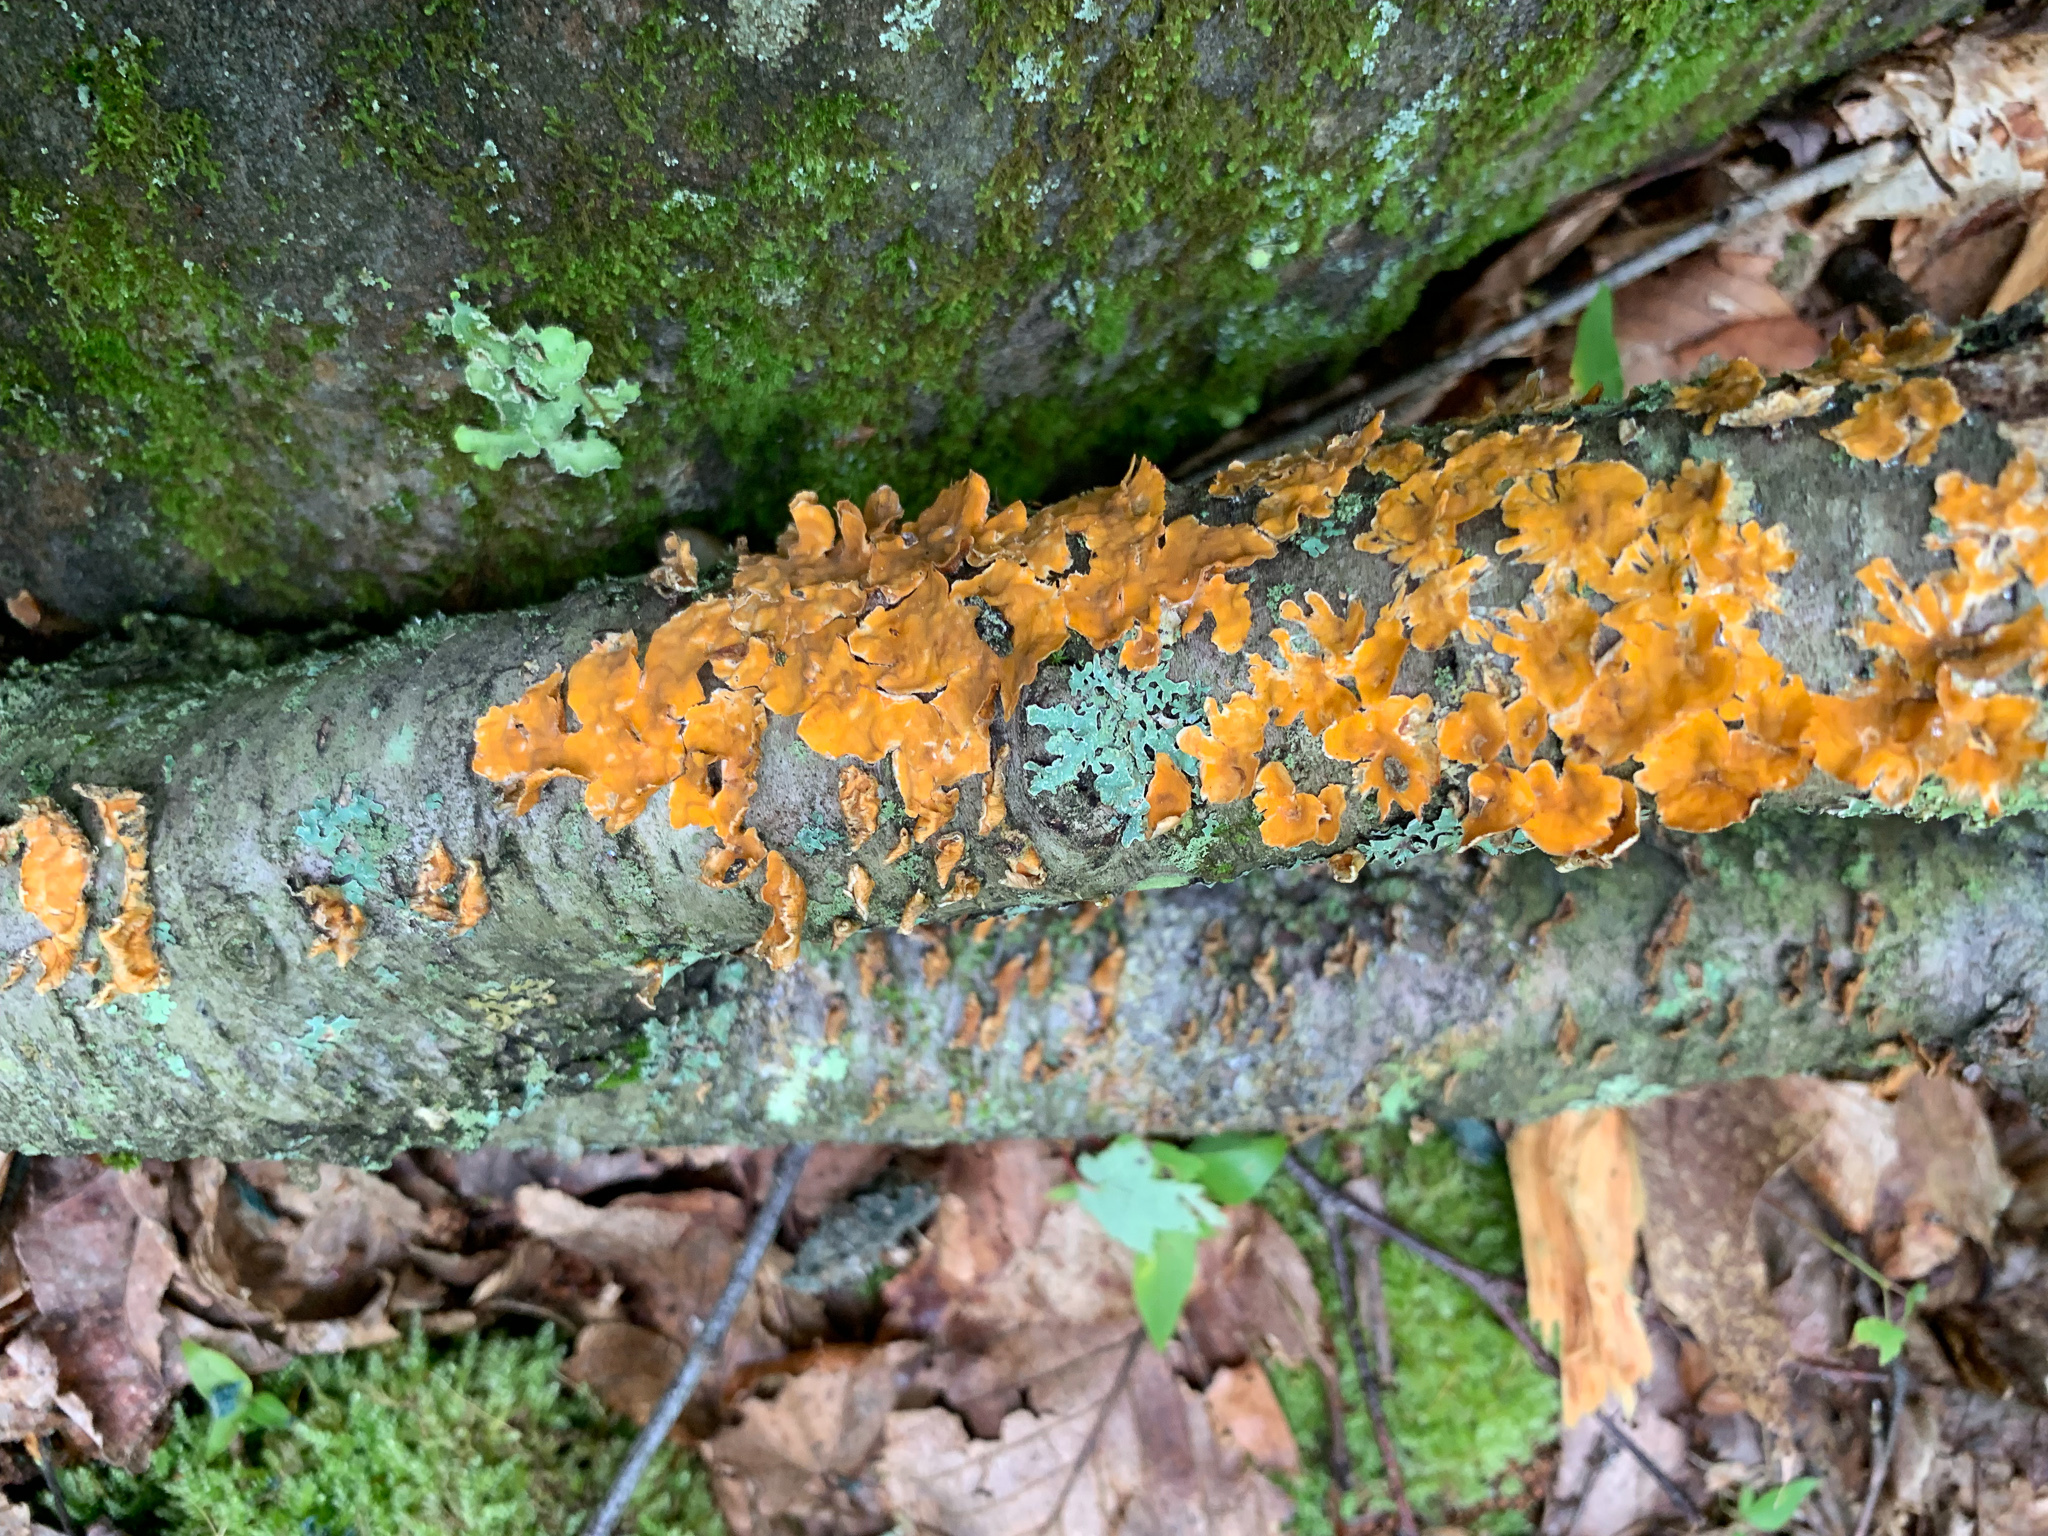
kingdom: Fungi
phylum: Basidiomycota
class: Agaricomycetes
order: Russulales
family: Stereaceae
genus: Stereum
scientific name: Stereum complicatum
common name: Crowded parchment
